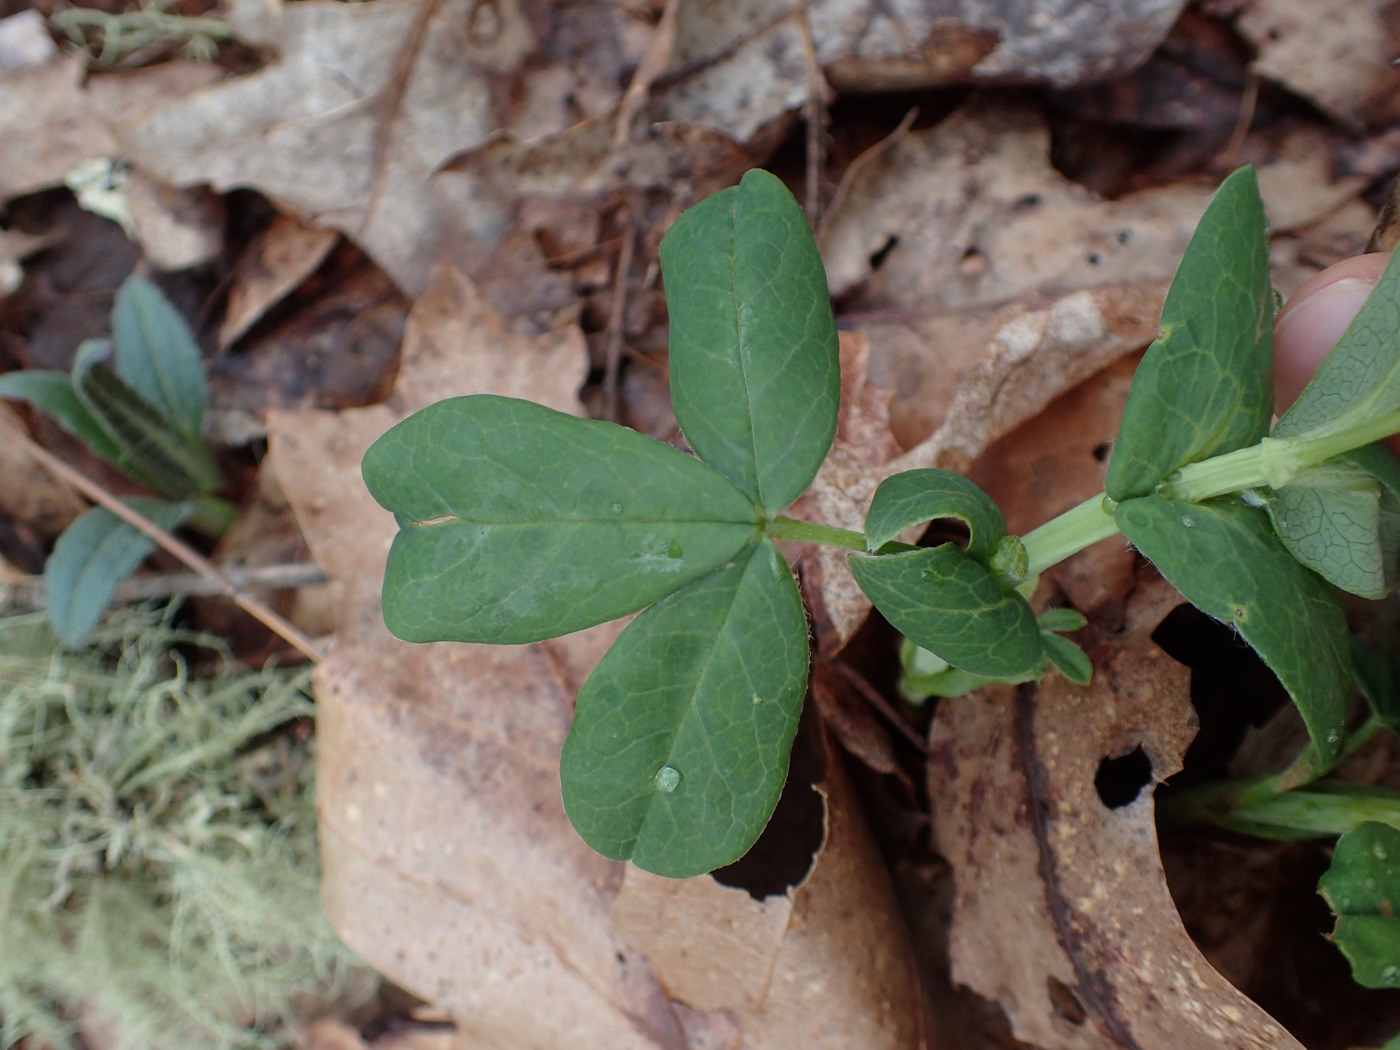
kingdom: Plantae
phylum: Tracheophyta
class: Magnoliopsida
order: Fabales
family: Fabaceae
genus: Thermopsis
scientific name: Thermopsis villosa
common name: Carolina-lupin
